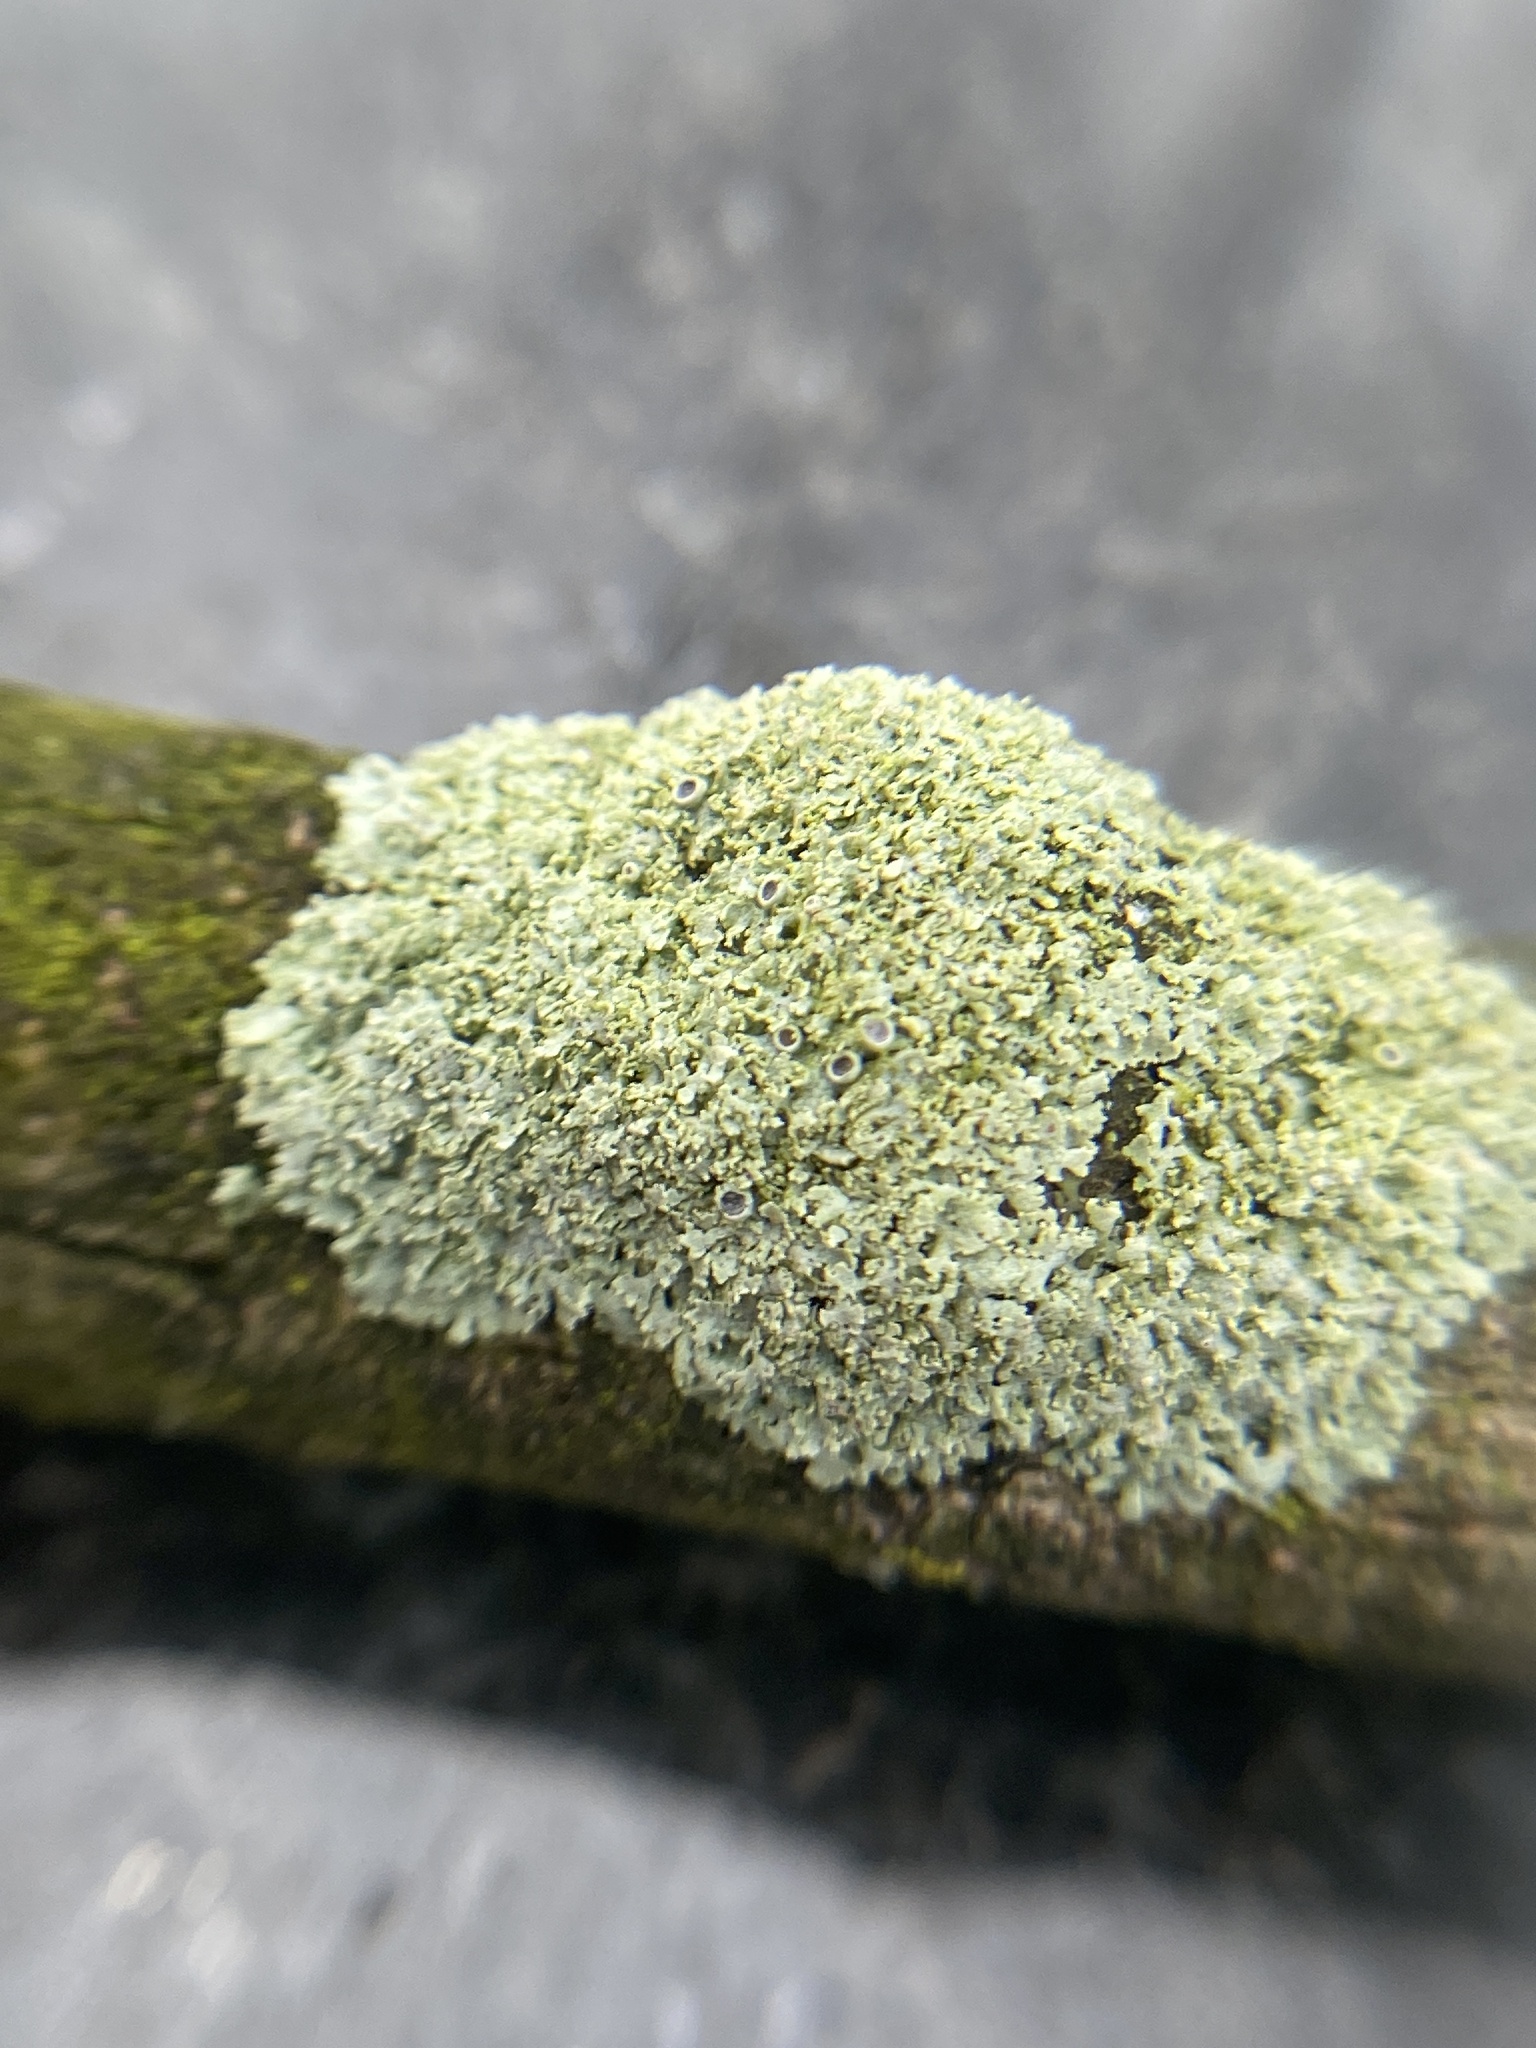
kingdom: Fungi
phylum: Ascomycota
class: Lecanoromycetes
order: Caliciales
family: Physciaceae
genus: Physcia
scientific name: Physcia millegrana
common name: Rosette lichen
